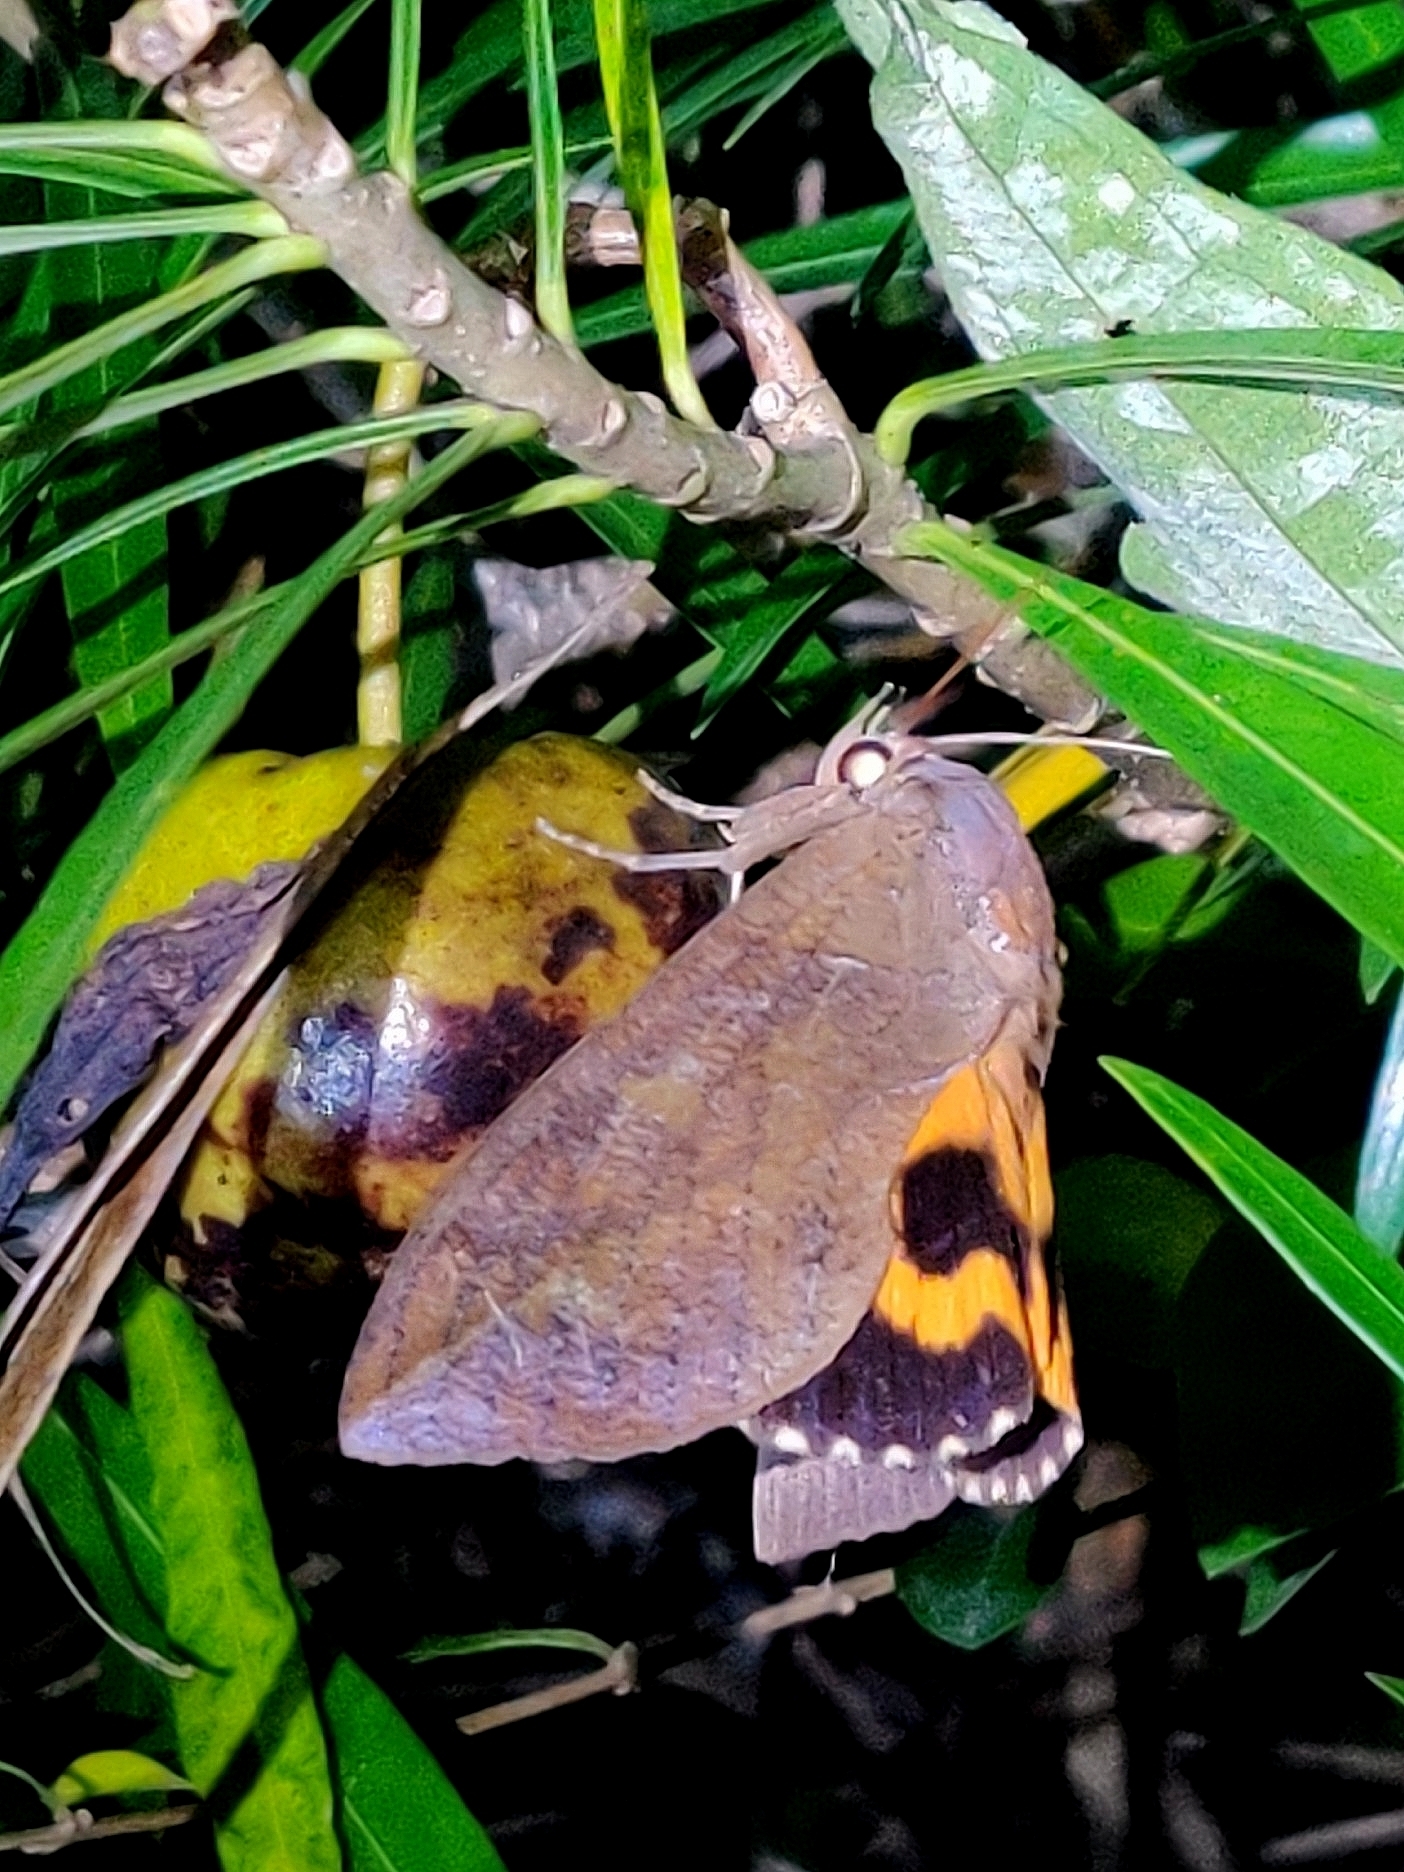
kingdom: Animalia
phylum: Arthropoda
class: Insecta
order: Lepidoptera
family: Erebidae
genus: Eudocima
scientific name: Eudocima phalonia
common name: Wasp
